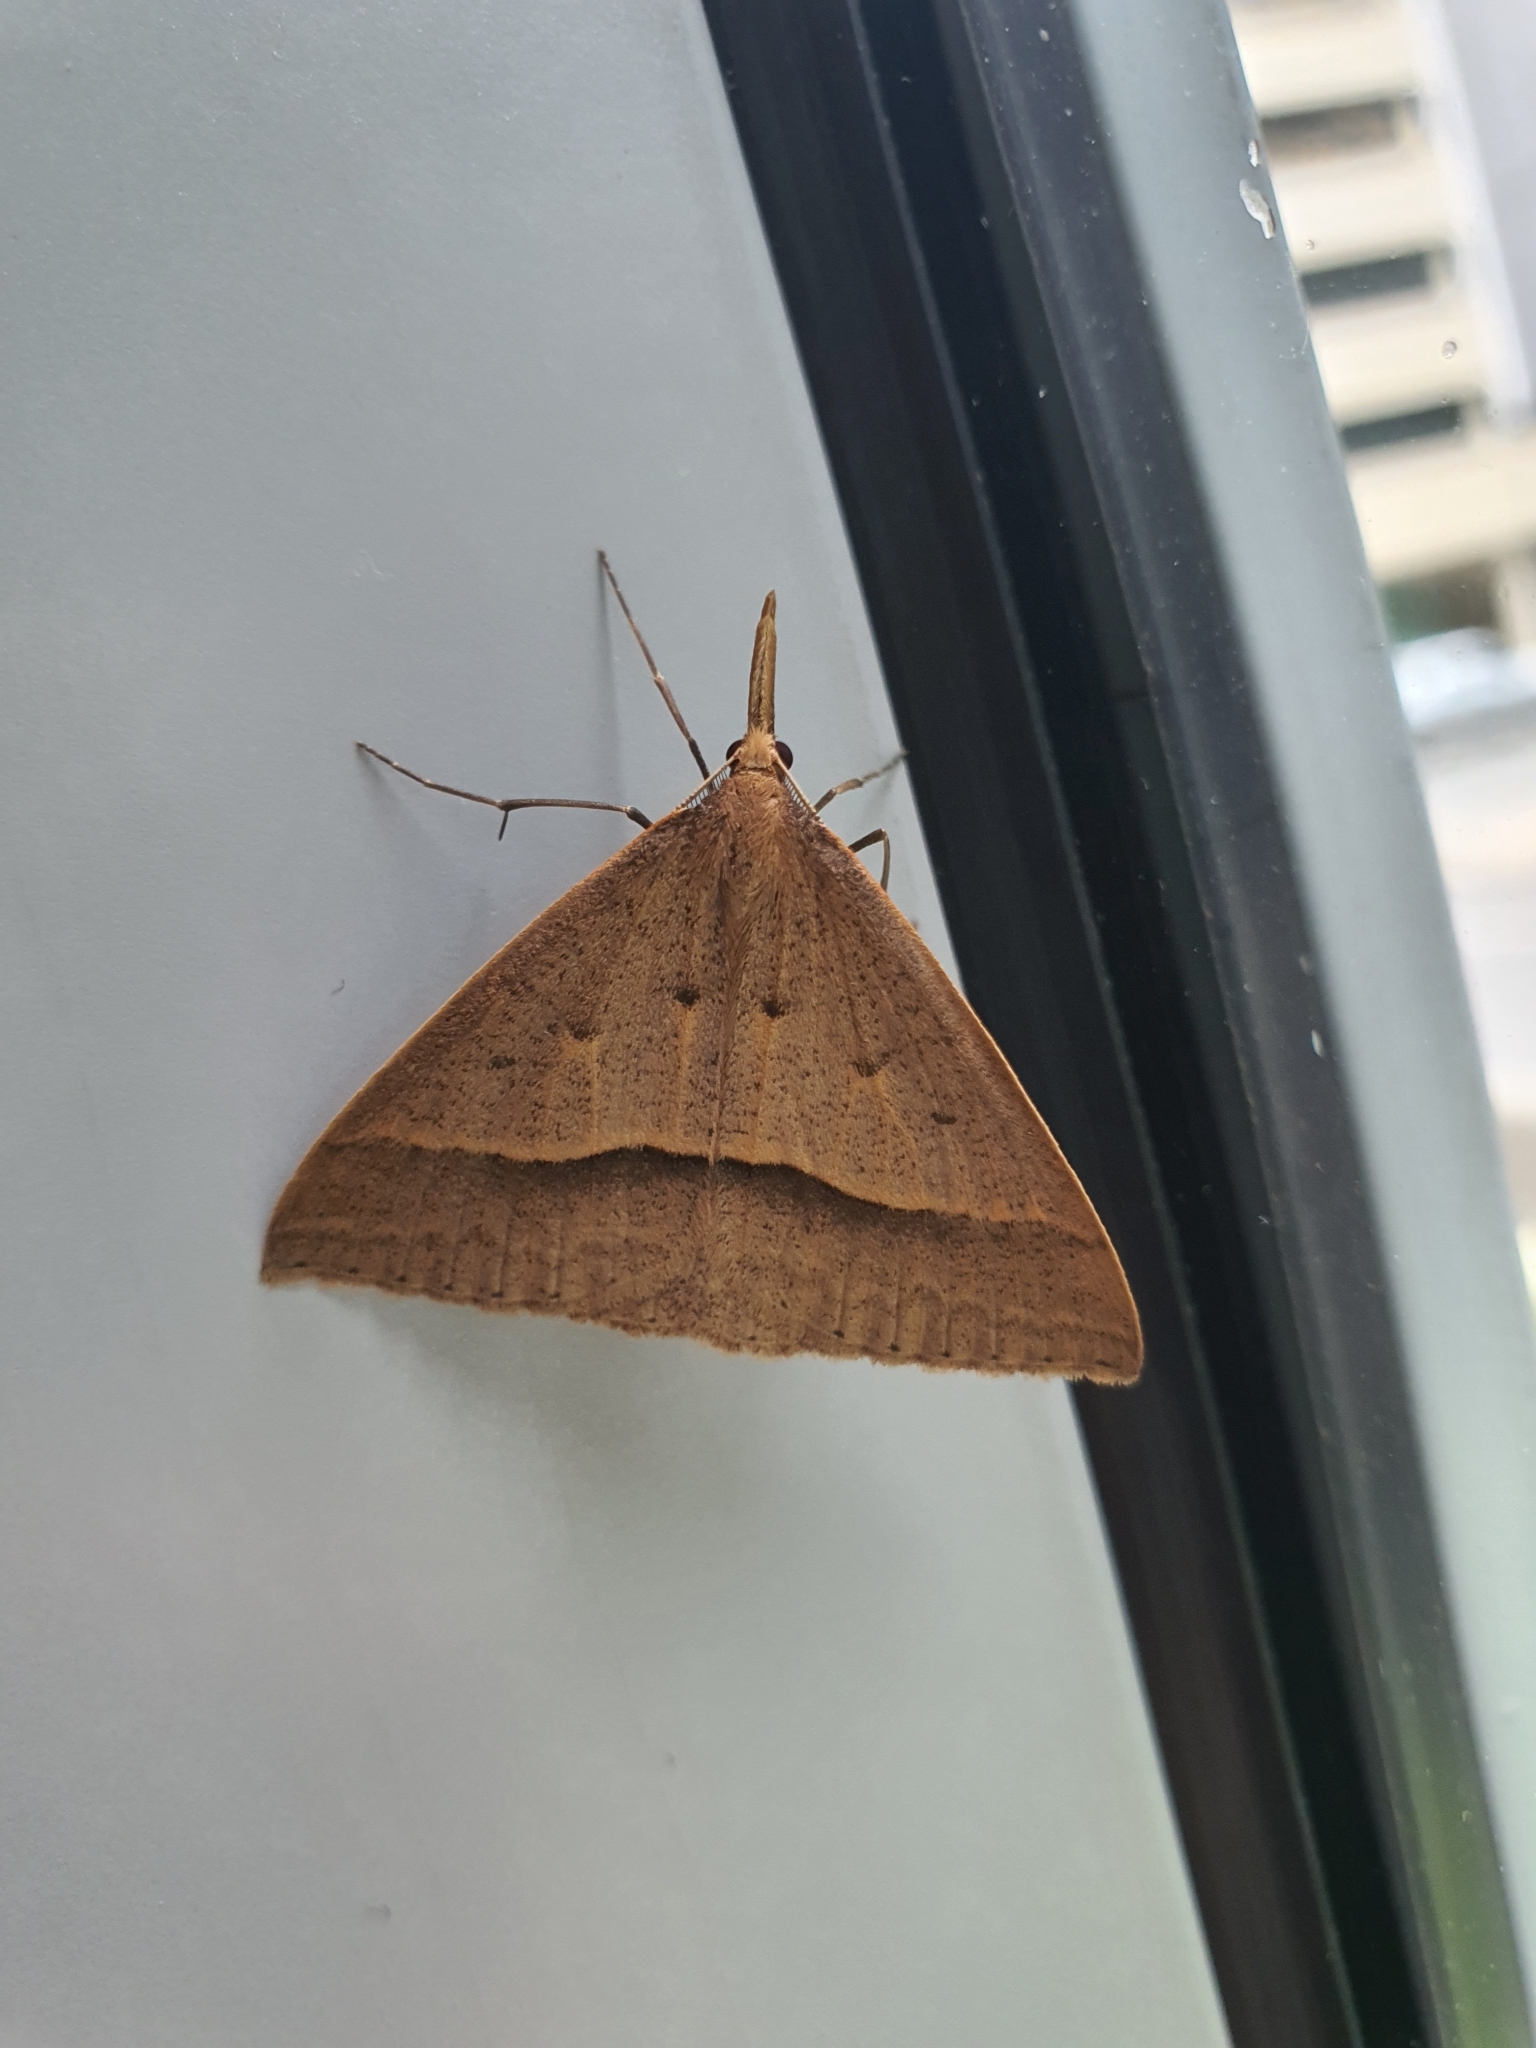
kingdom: Animalia
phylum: Arthropoda
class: Insecta
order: Lepidoptera
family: Geometridae
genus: Epidesmia
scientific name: Epidesmia hypenaria
